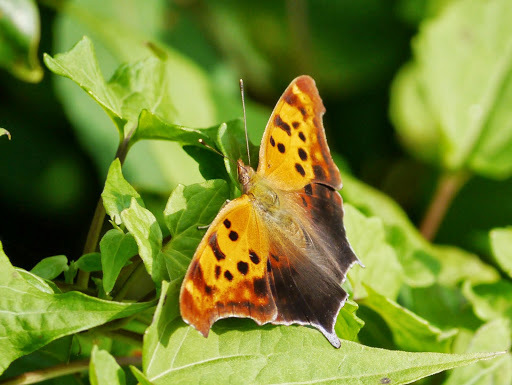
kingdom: Animalia
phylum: Arthropoda
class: Insecta
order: Lepidoptera
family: Nymphalidae
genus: Polygonia
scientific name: Polygonia interrogationis
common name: Question mark
